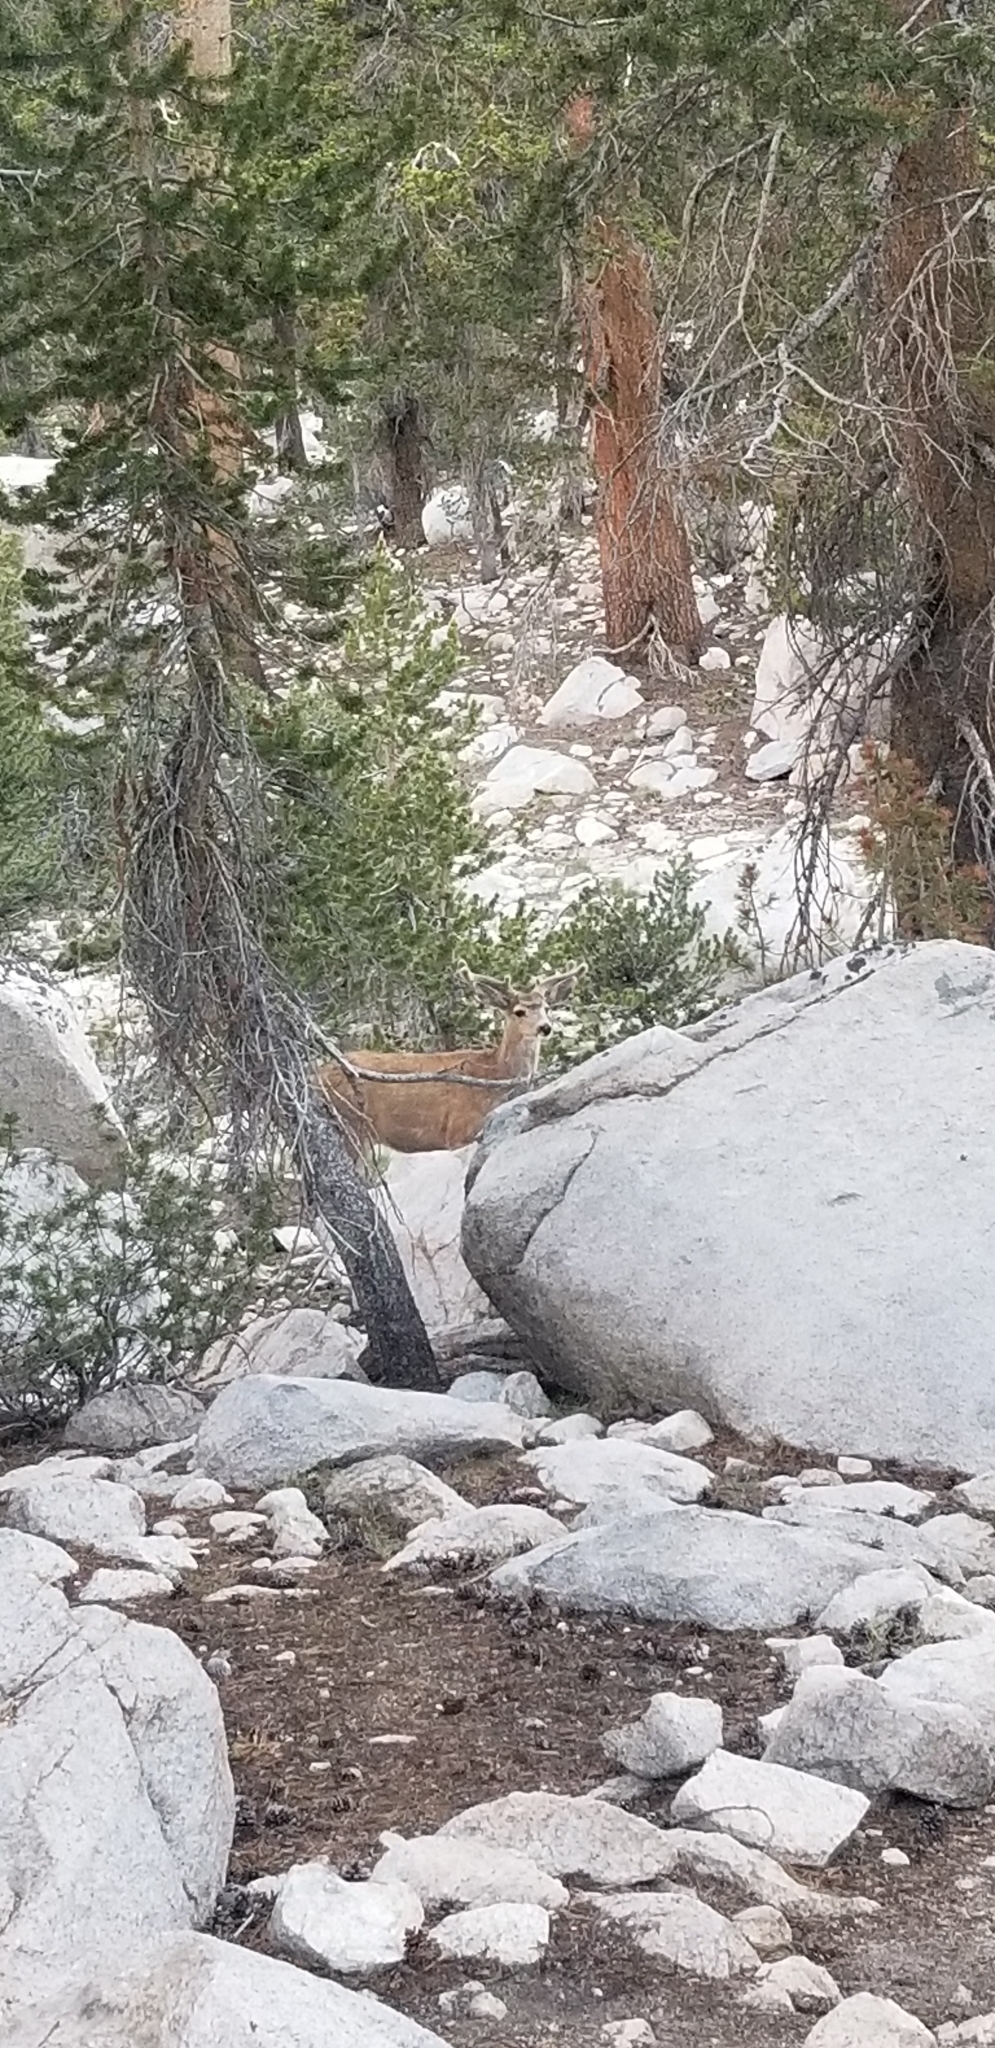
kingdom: Animalia
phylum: Chordata
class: Mammalia
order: Artiodactyla
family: Cervidae
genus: Odocoileus
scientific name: Odocoileus hemionus
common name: Mule deer
